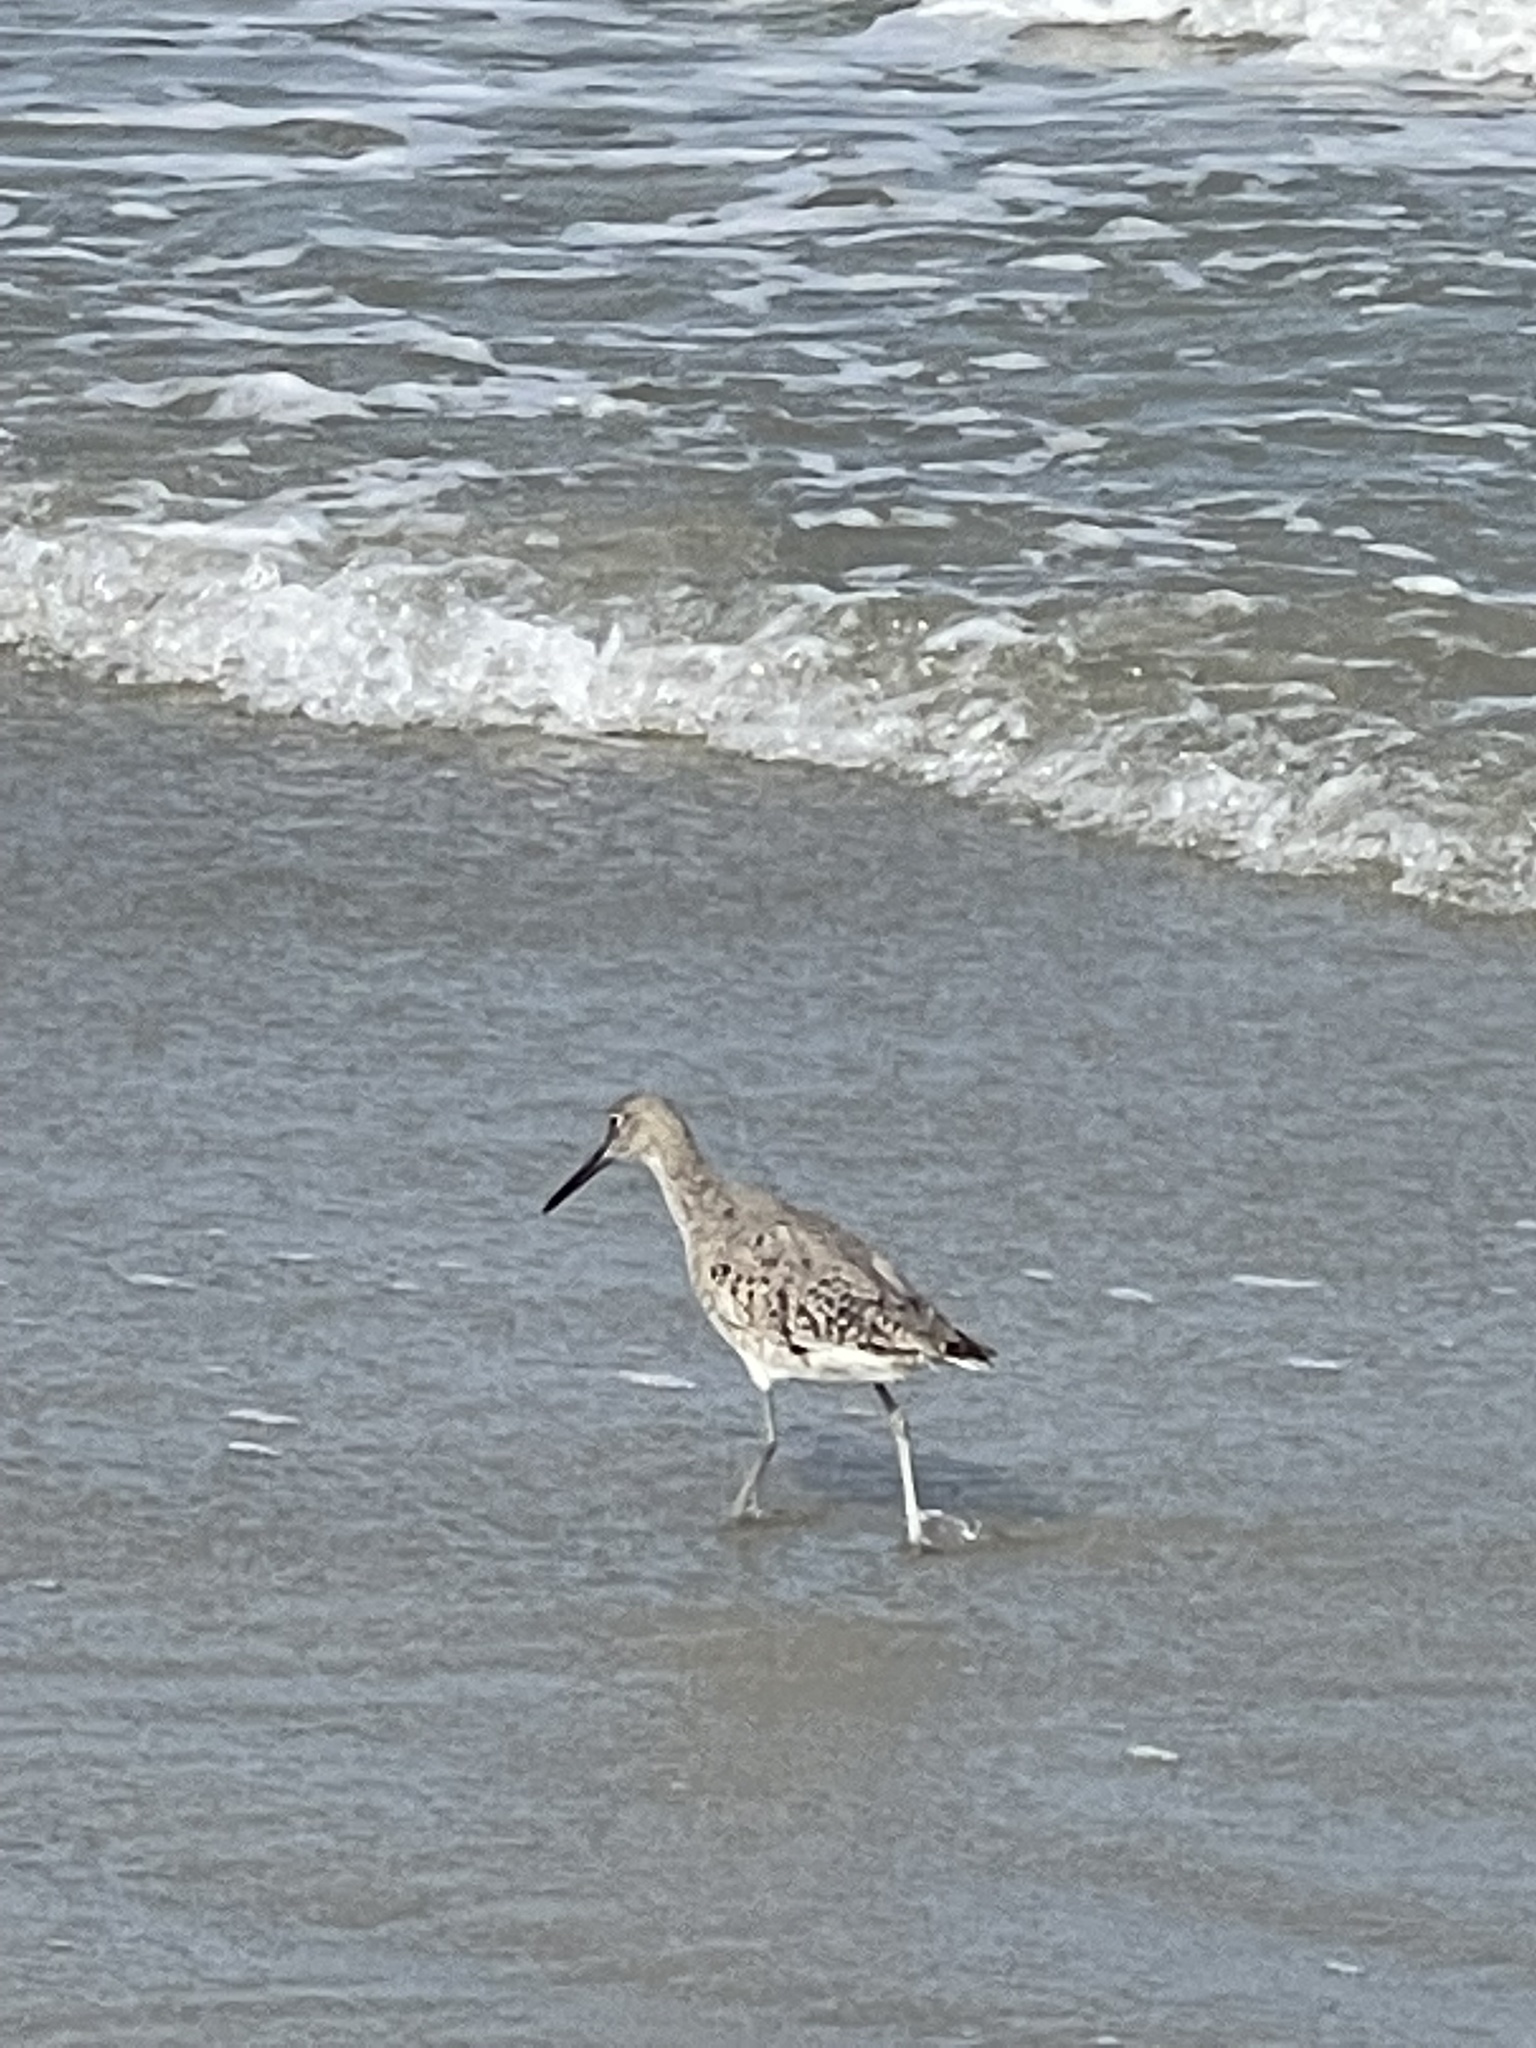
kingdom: Animalia
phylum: Chordata
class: Aves
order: Charadriiformes
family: Scolopacidae
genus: Tringa
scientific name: Tringa semipalmata
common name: Willet
